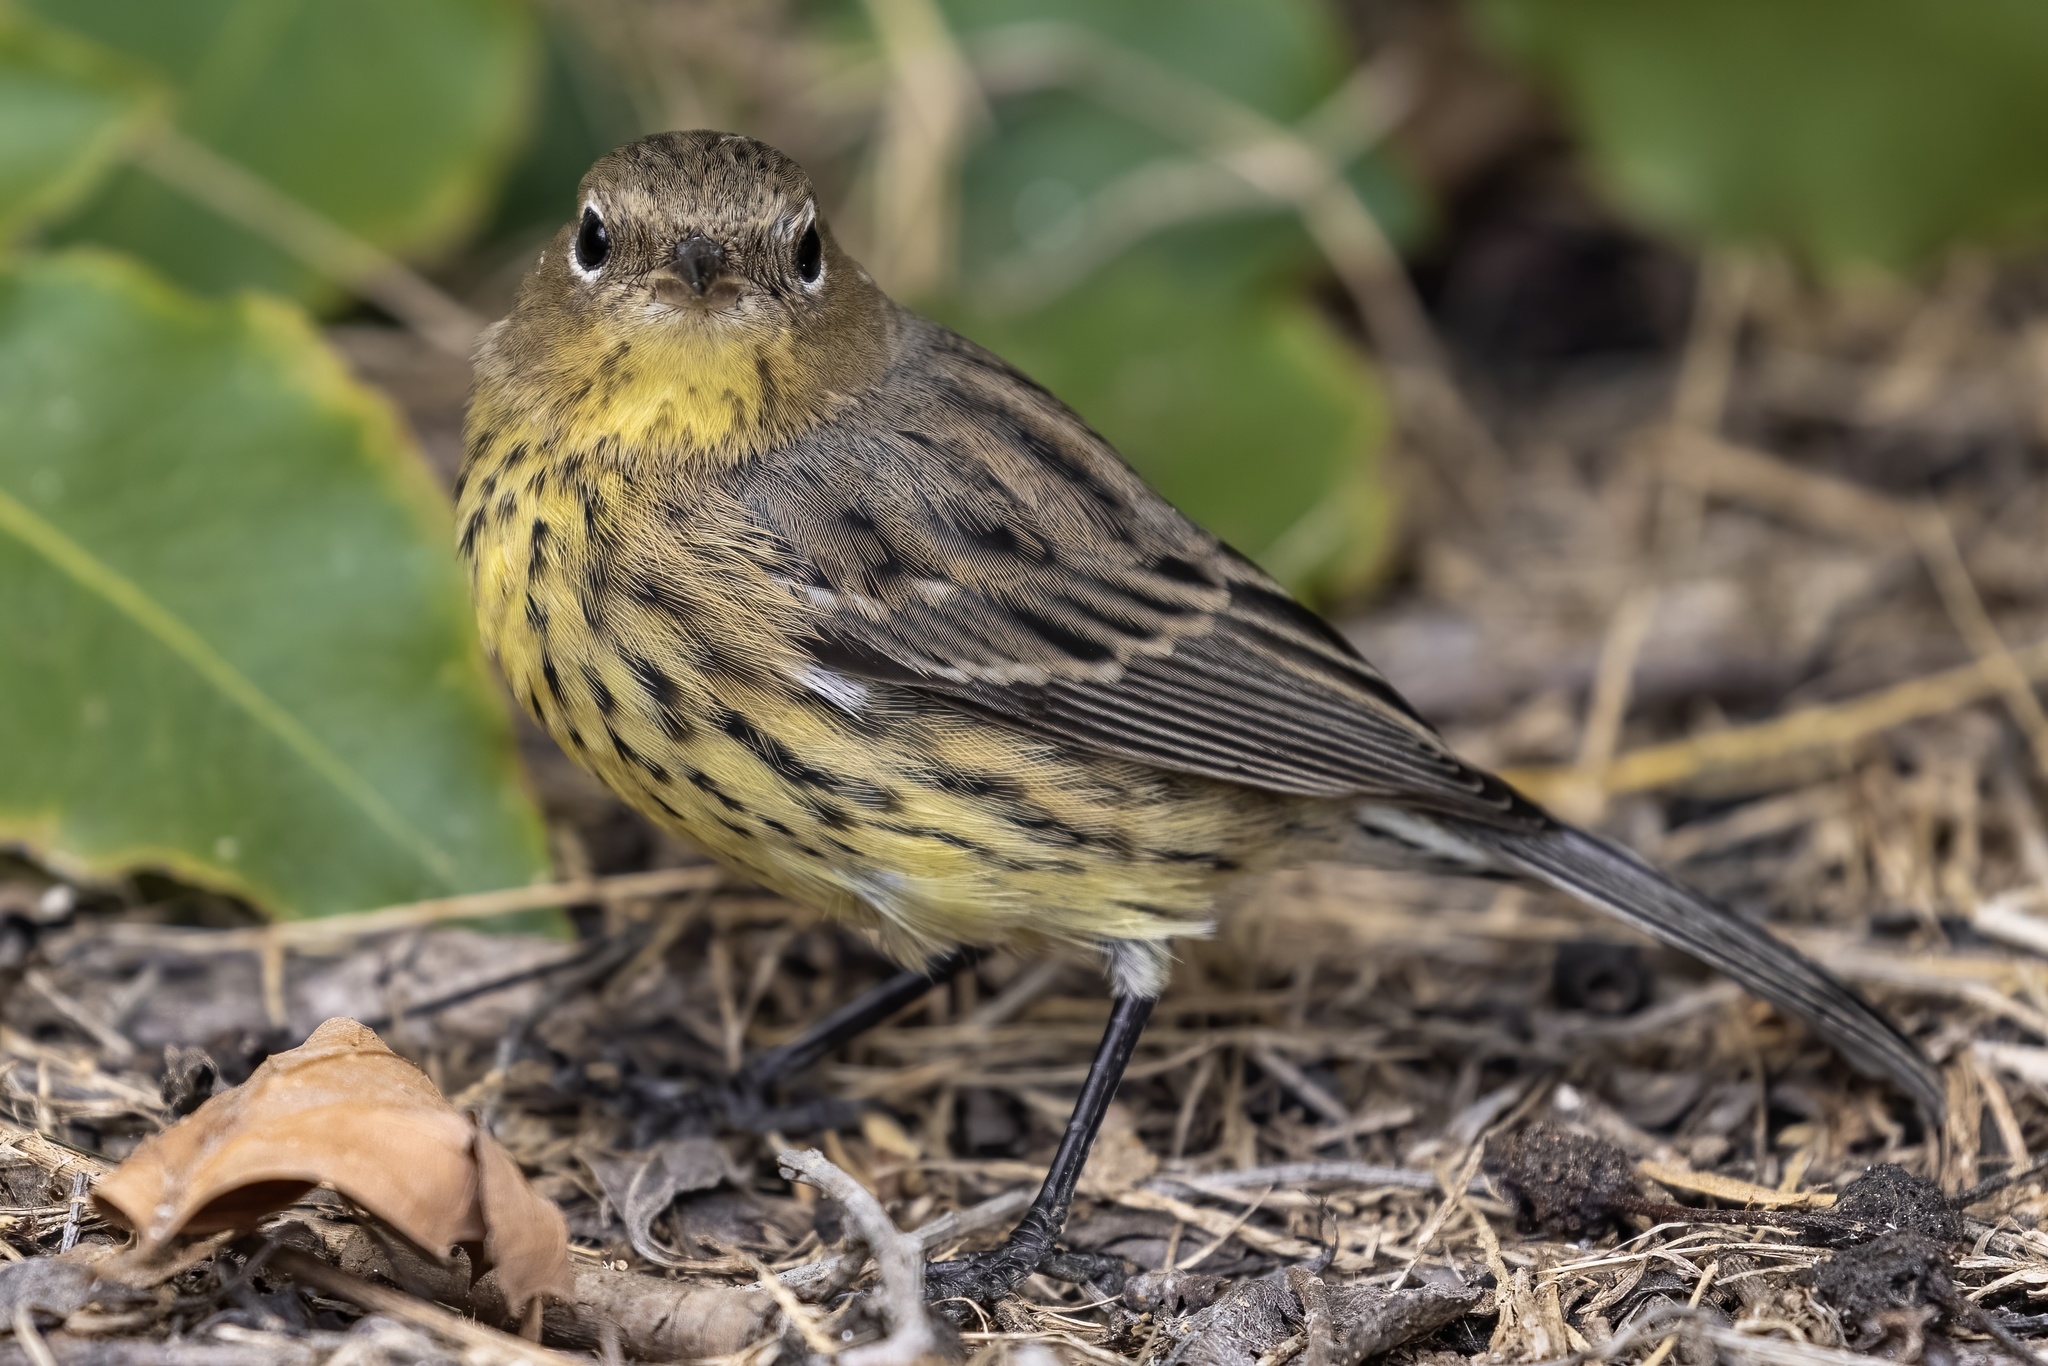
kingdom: Animalia
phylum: Chordata
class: Aves
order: Passeriformes
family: Parulidae
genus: Setophaga
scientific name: Setophaga kirtlandii
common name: Kirtland's warbler
